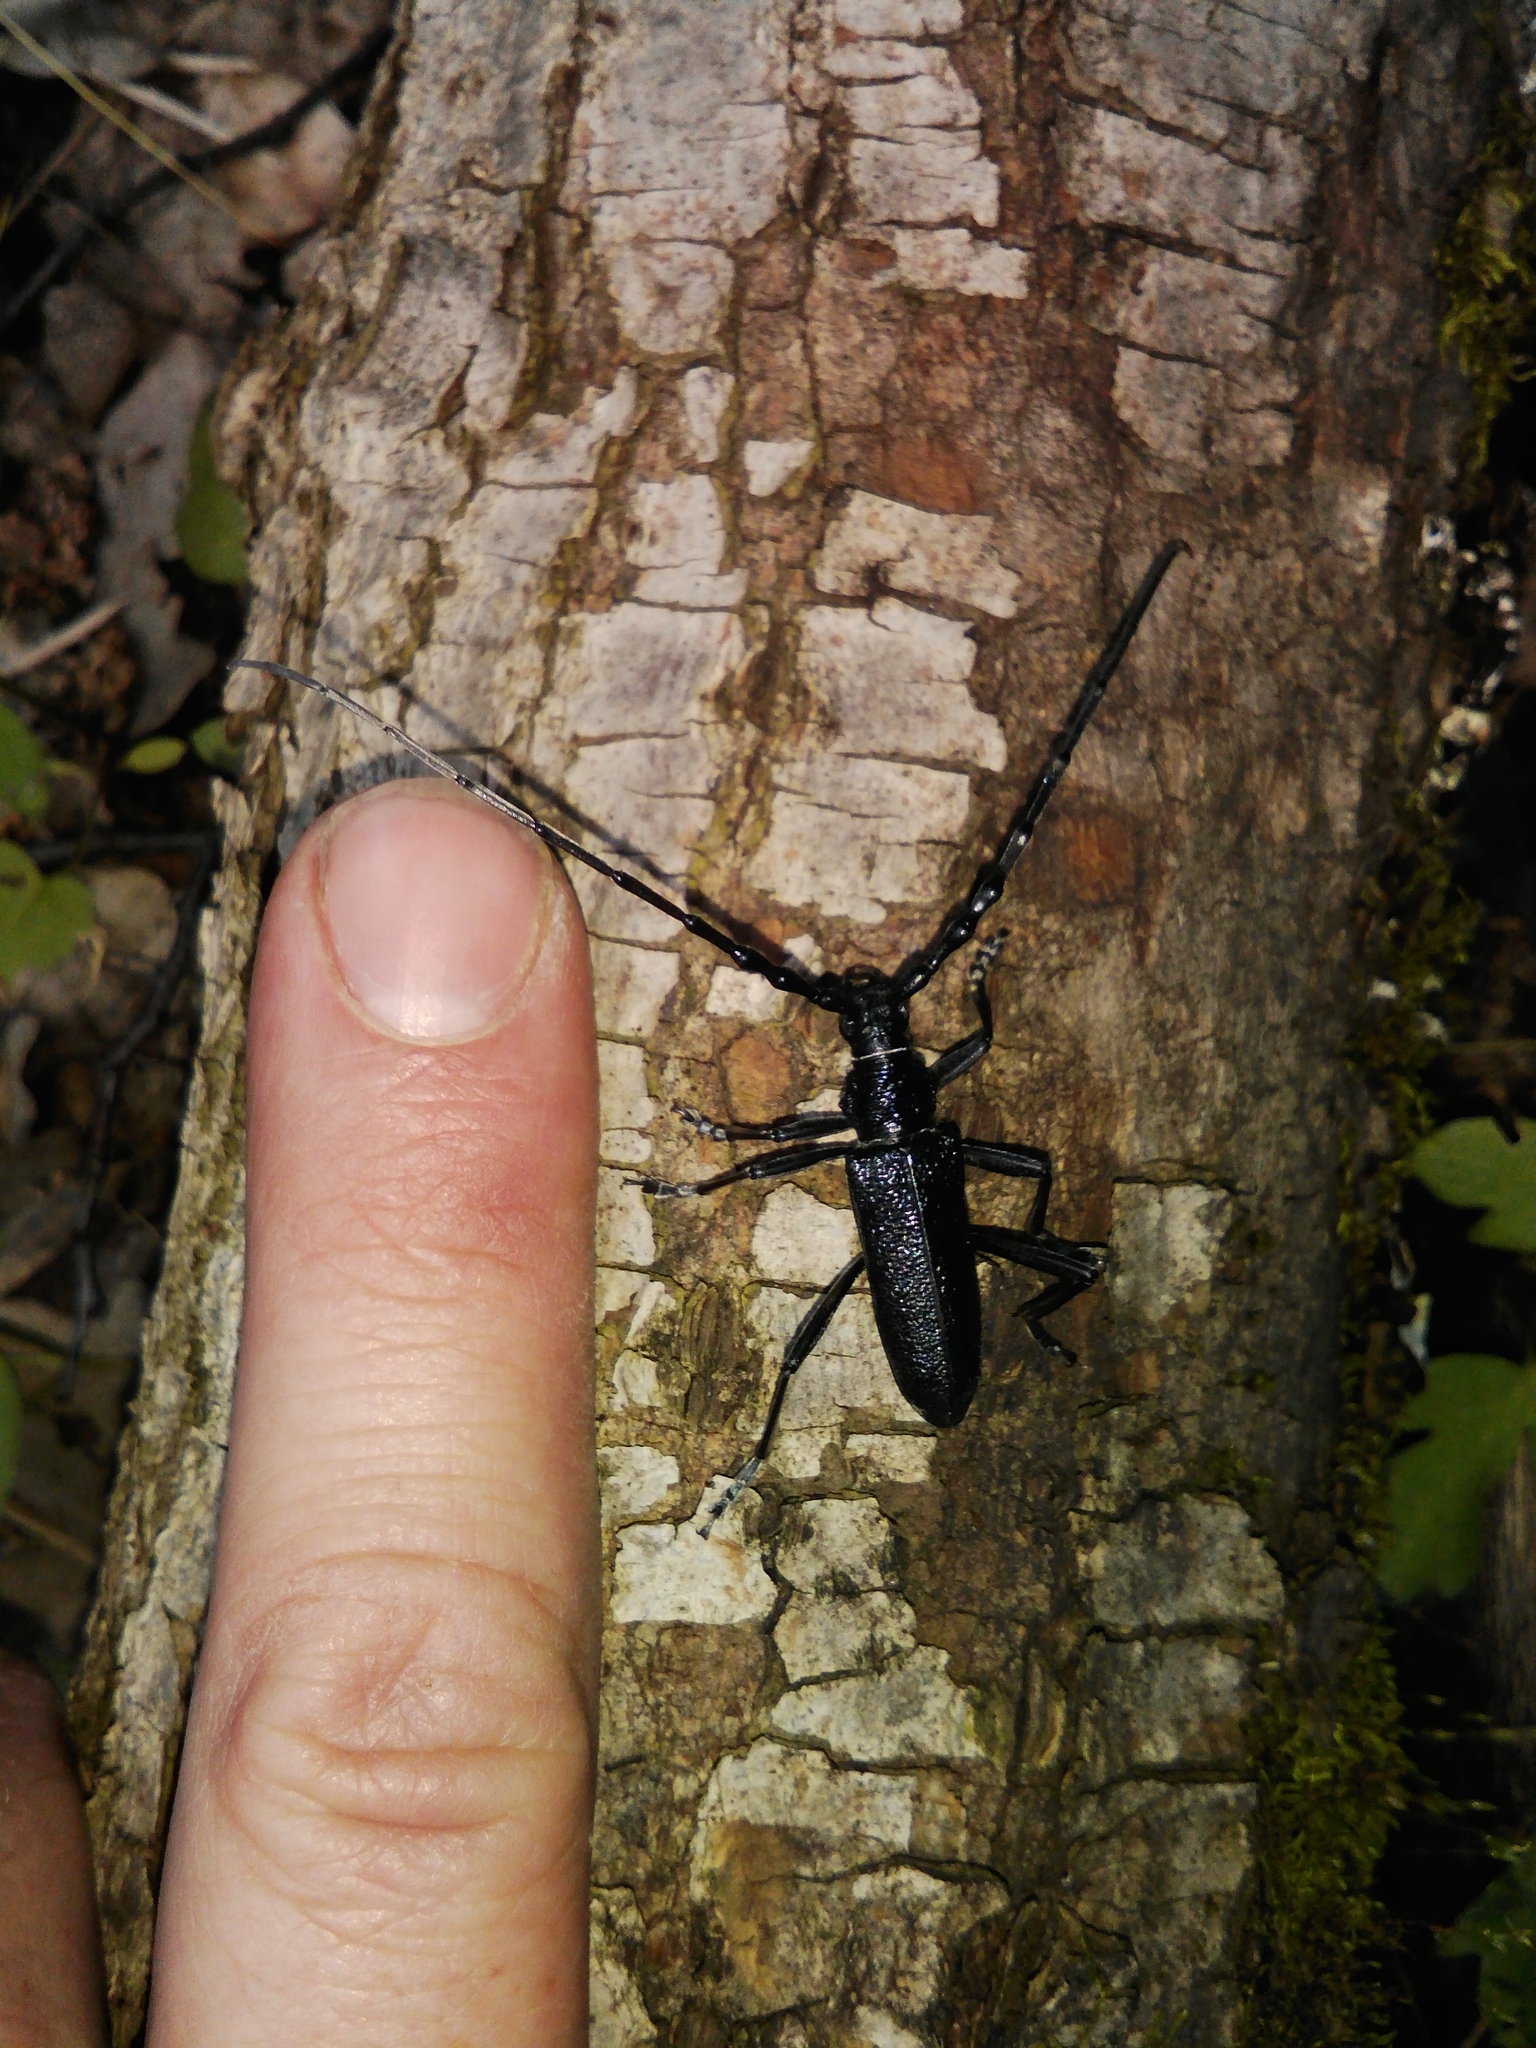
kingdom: Animalia
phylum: Arthropoda
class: Insecta
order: Coleoptera
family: Cerambycidae
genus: Cerambyx
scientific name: Cerambyx scopolii
